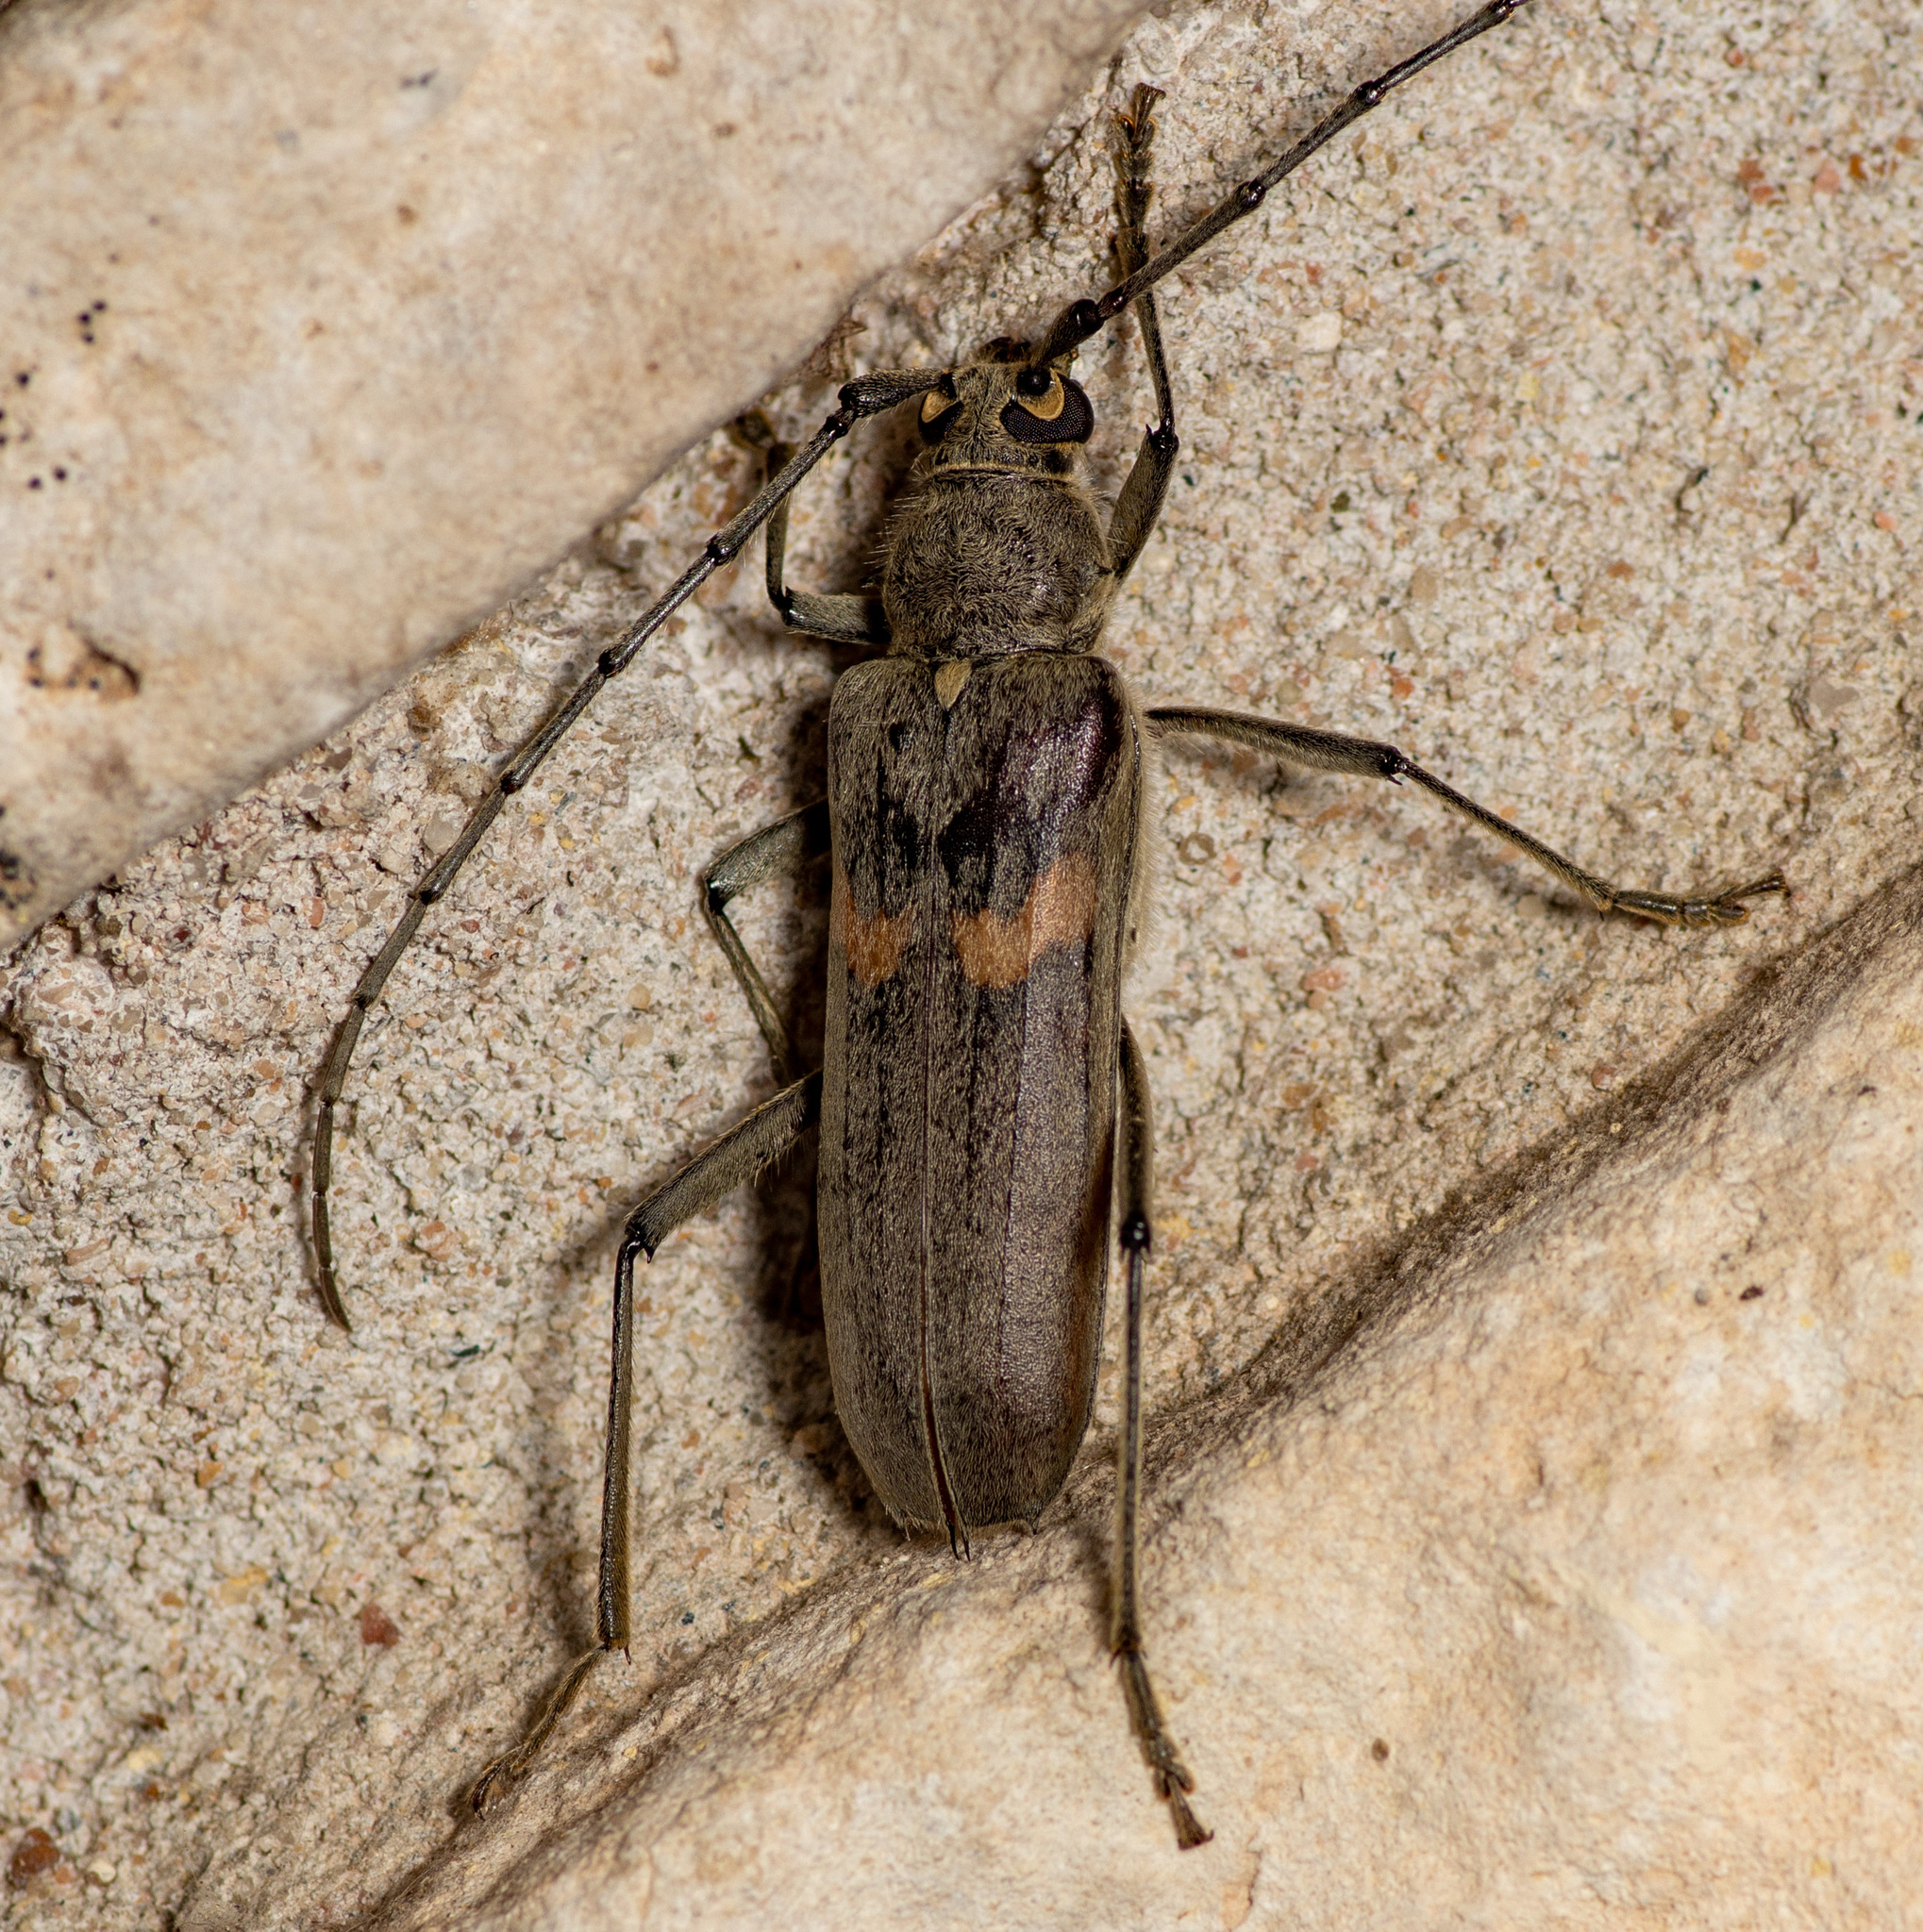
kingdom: Animalia
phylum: Arthropoda
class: Insecta
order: Coleoptera
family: Cerambycidae
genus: Knulliana
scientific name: Knulliana cincta
